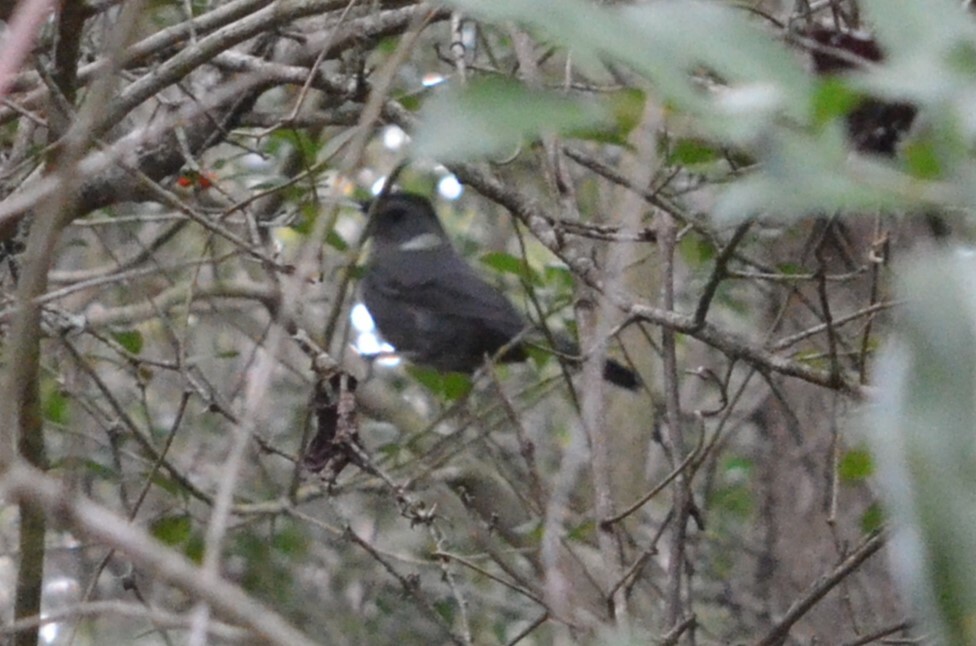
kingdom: Animalia
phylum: Chordata
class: Aves
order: Passeriformes
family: Mimidae
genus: Dumetella
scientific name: Dumetella carolinensis
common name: Gray catbird
